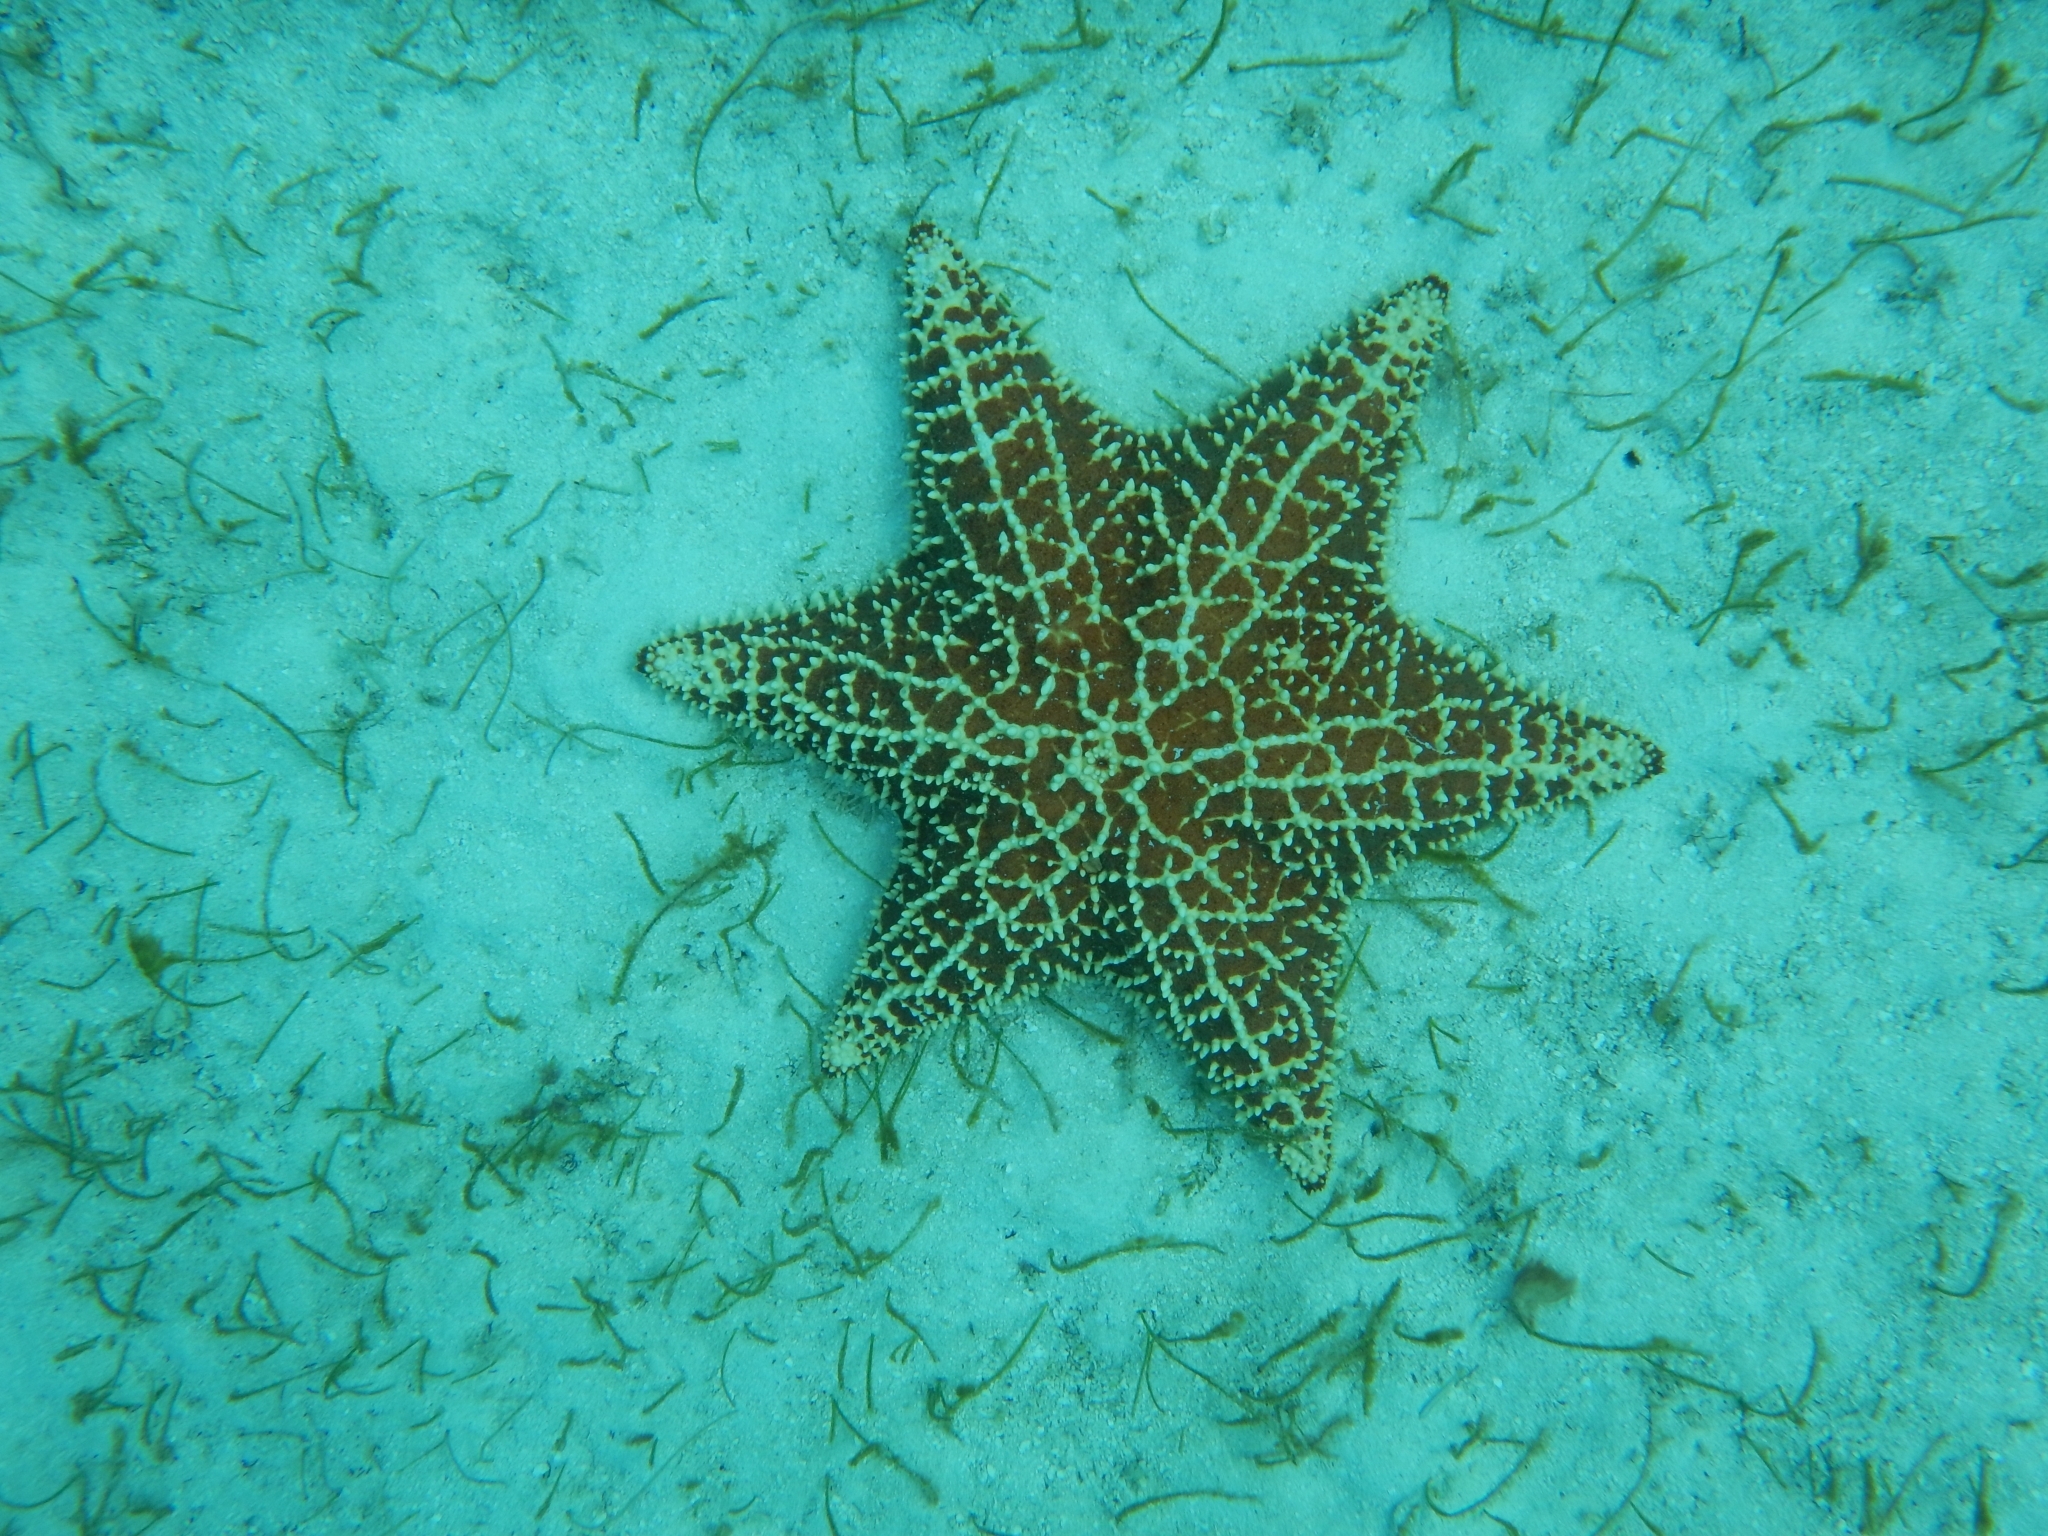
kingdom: Animalia
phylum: Echinodermata
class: Asteroidea
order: Valvatida
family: Oreasteridae
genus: Oreaster
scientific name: Oreaster reticulatus
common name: Cushion sea star
